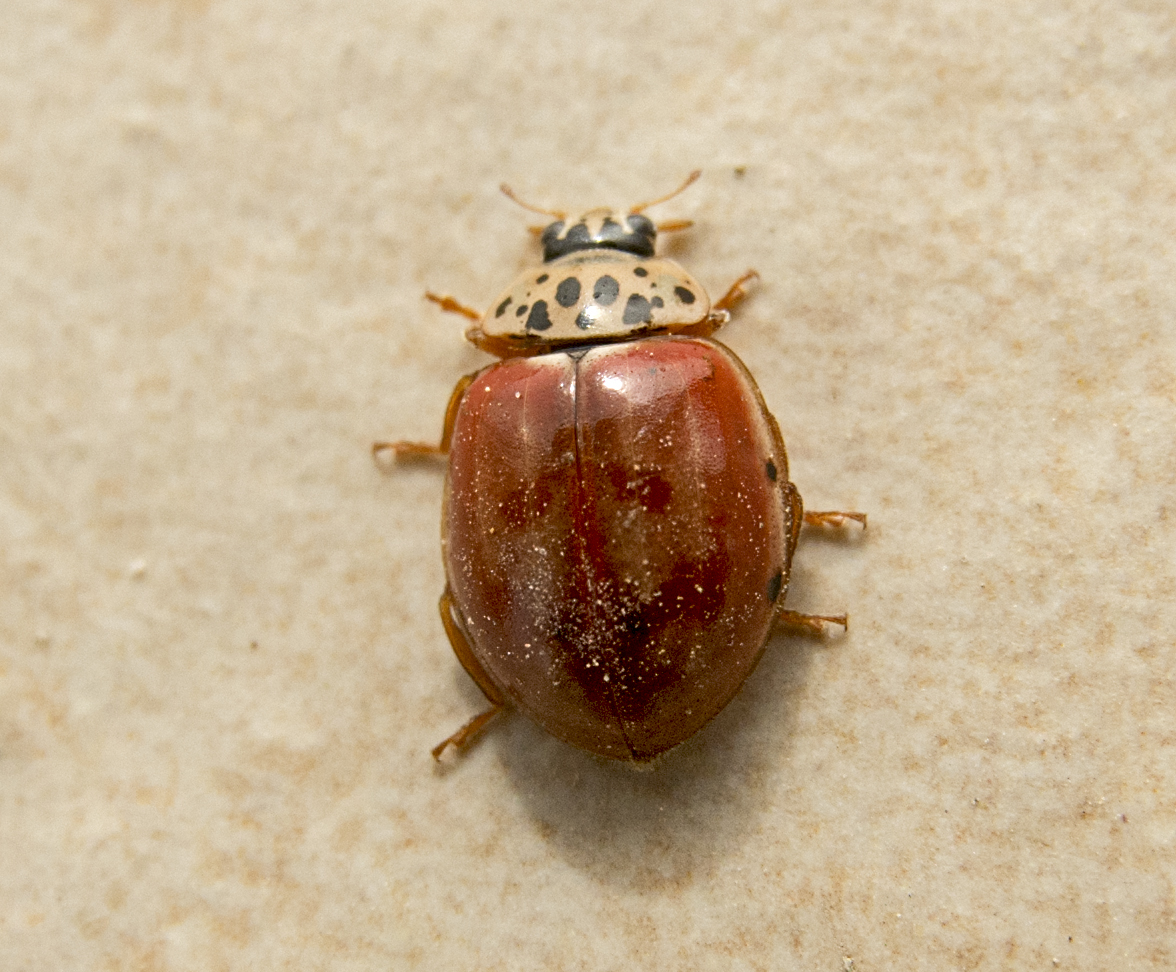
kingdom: Animalia
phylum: Arthropoda
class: Insecta
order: Coleoptera
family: Coccinellidae
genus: Harmonia
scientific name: Harmonia quadripunctata
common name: Cream-streaked ladybird
